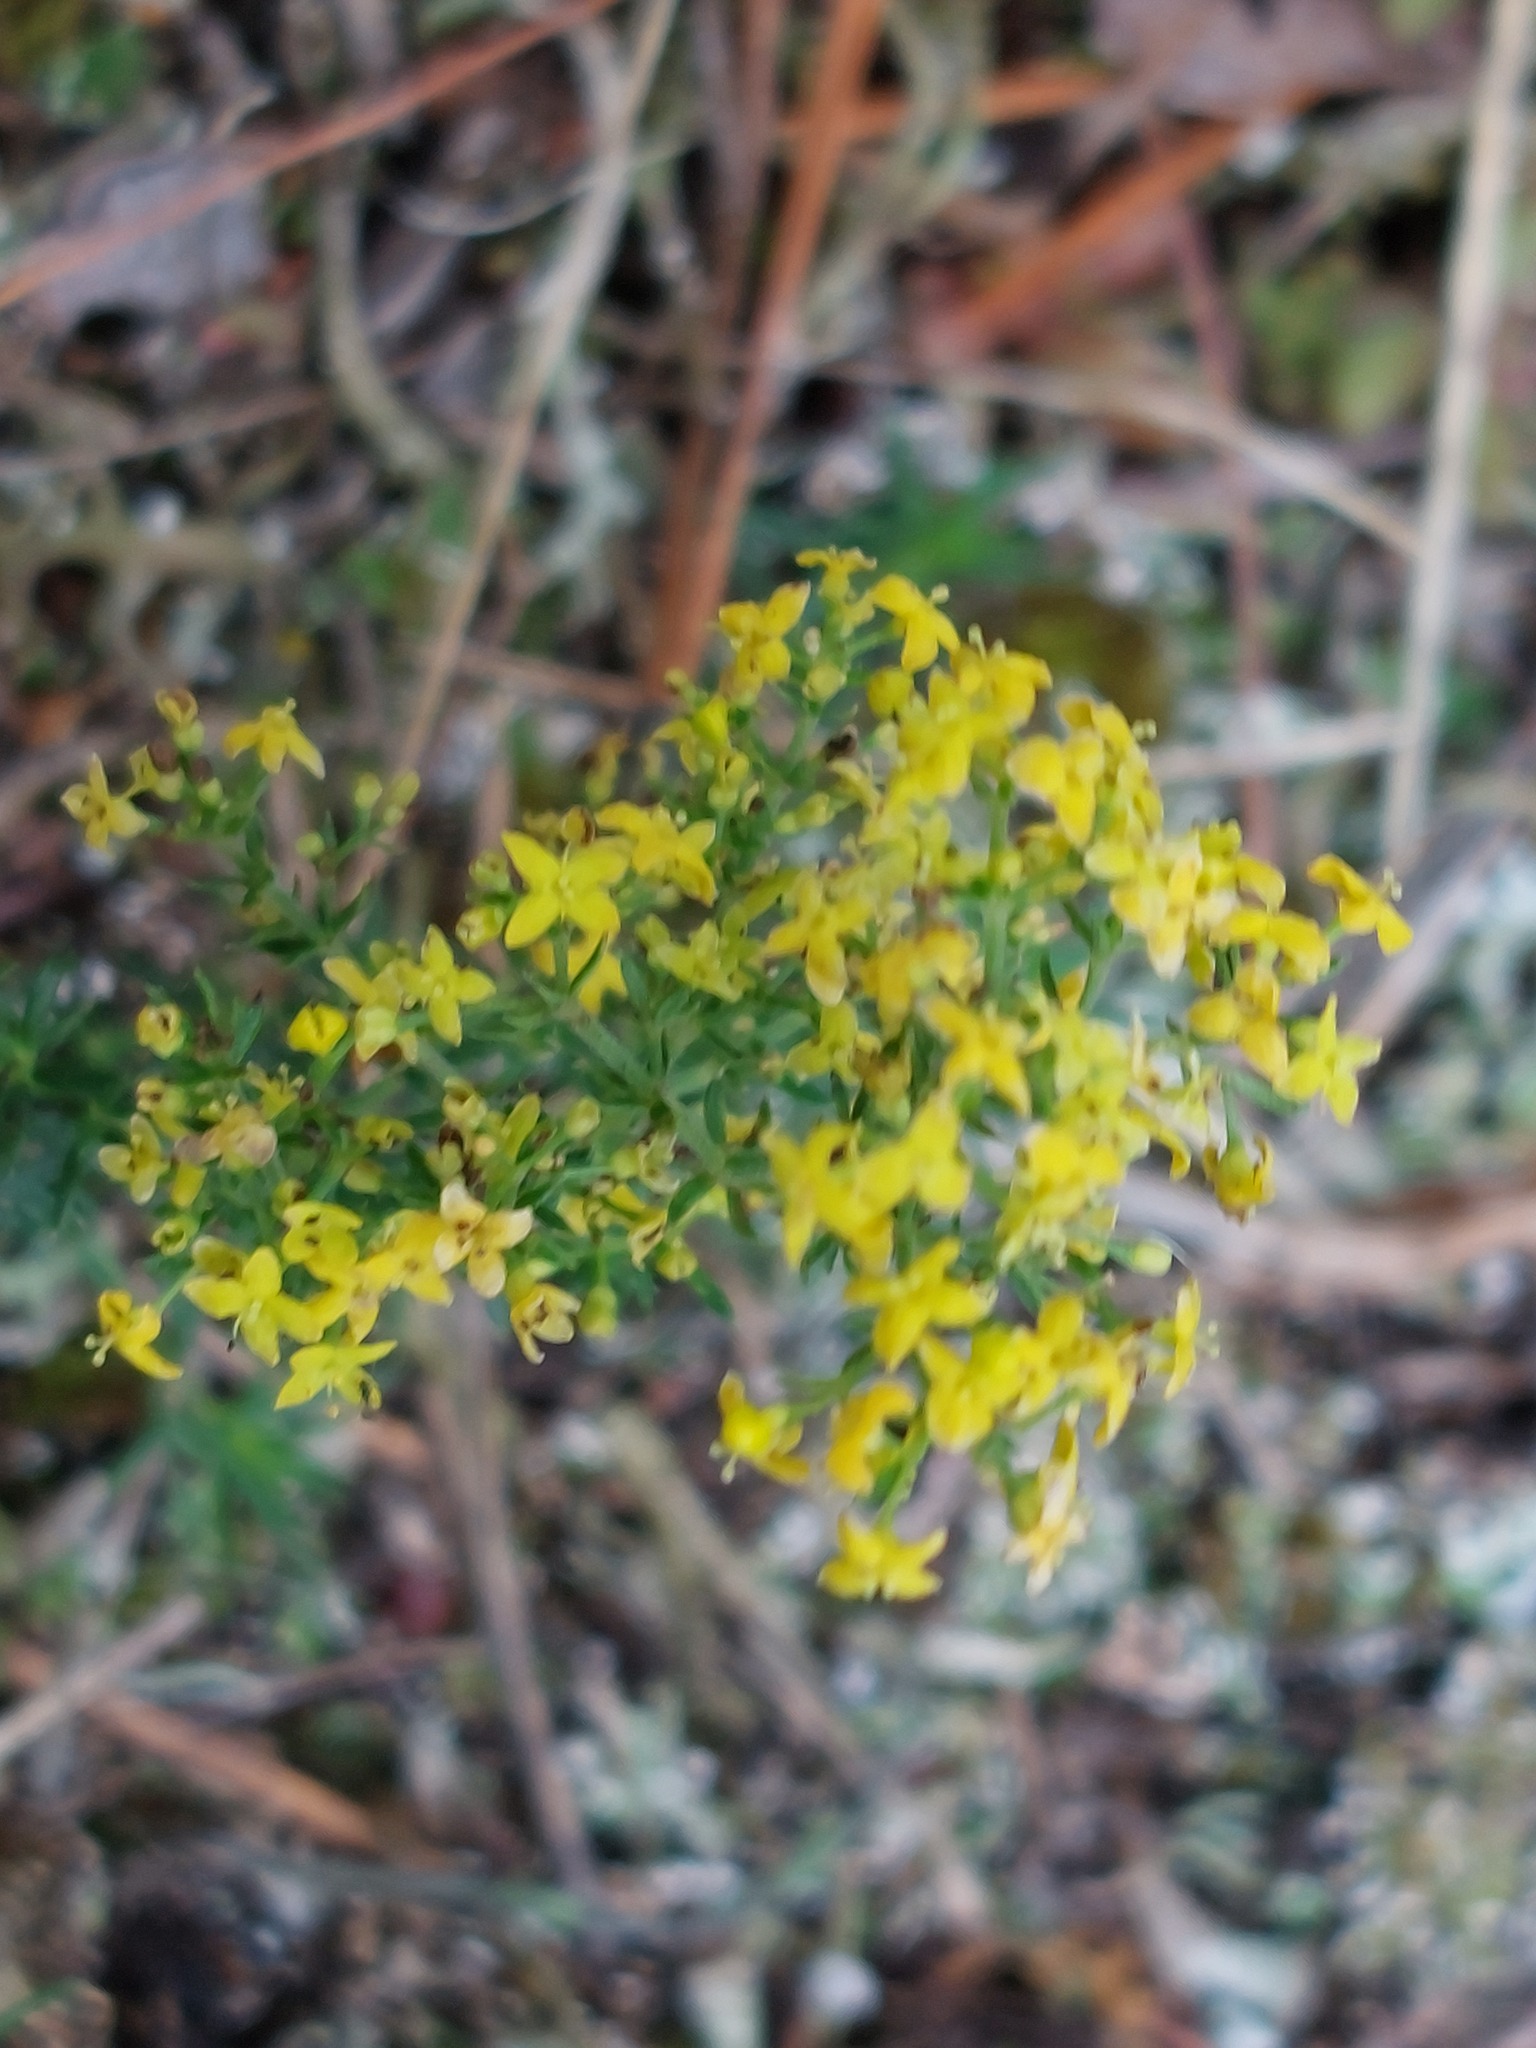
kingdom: Plantae
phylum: Tracheophyta
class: Magnoliopsida
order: Gentianales
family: Rubiaceae
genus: Galium
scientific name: Galium verum
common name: Lady's bedstraw
